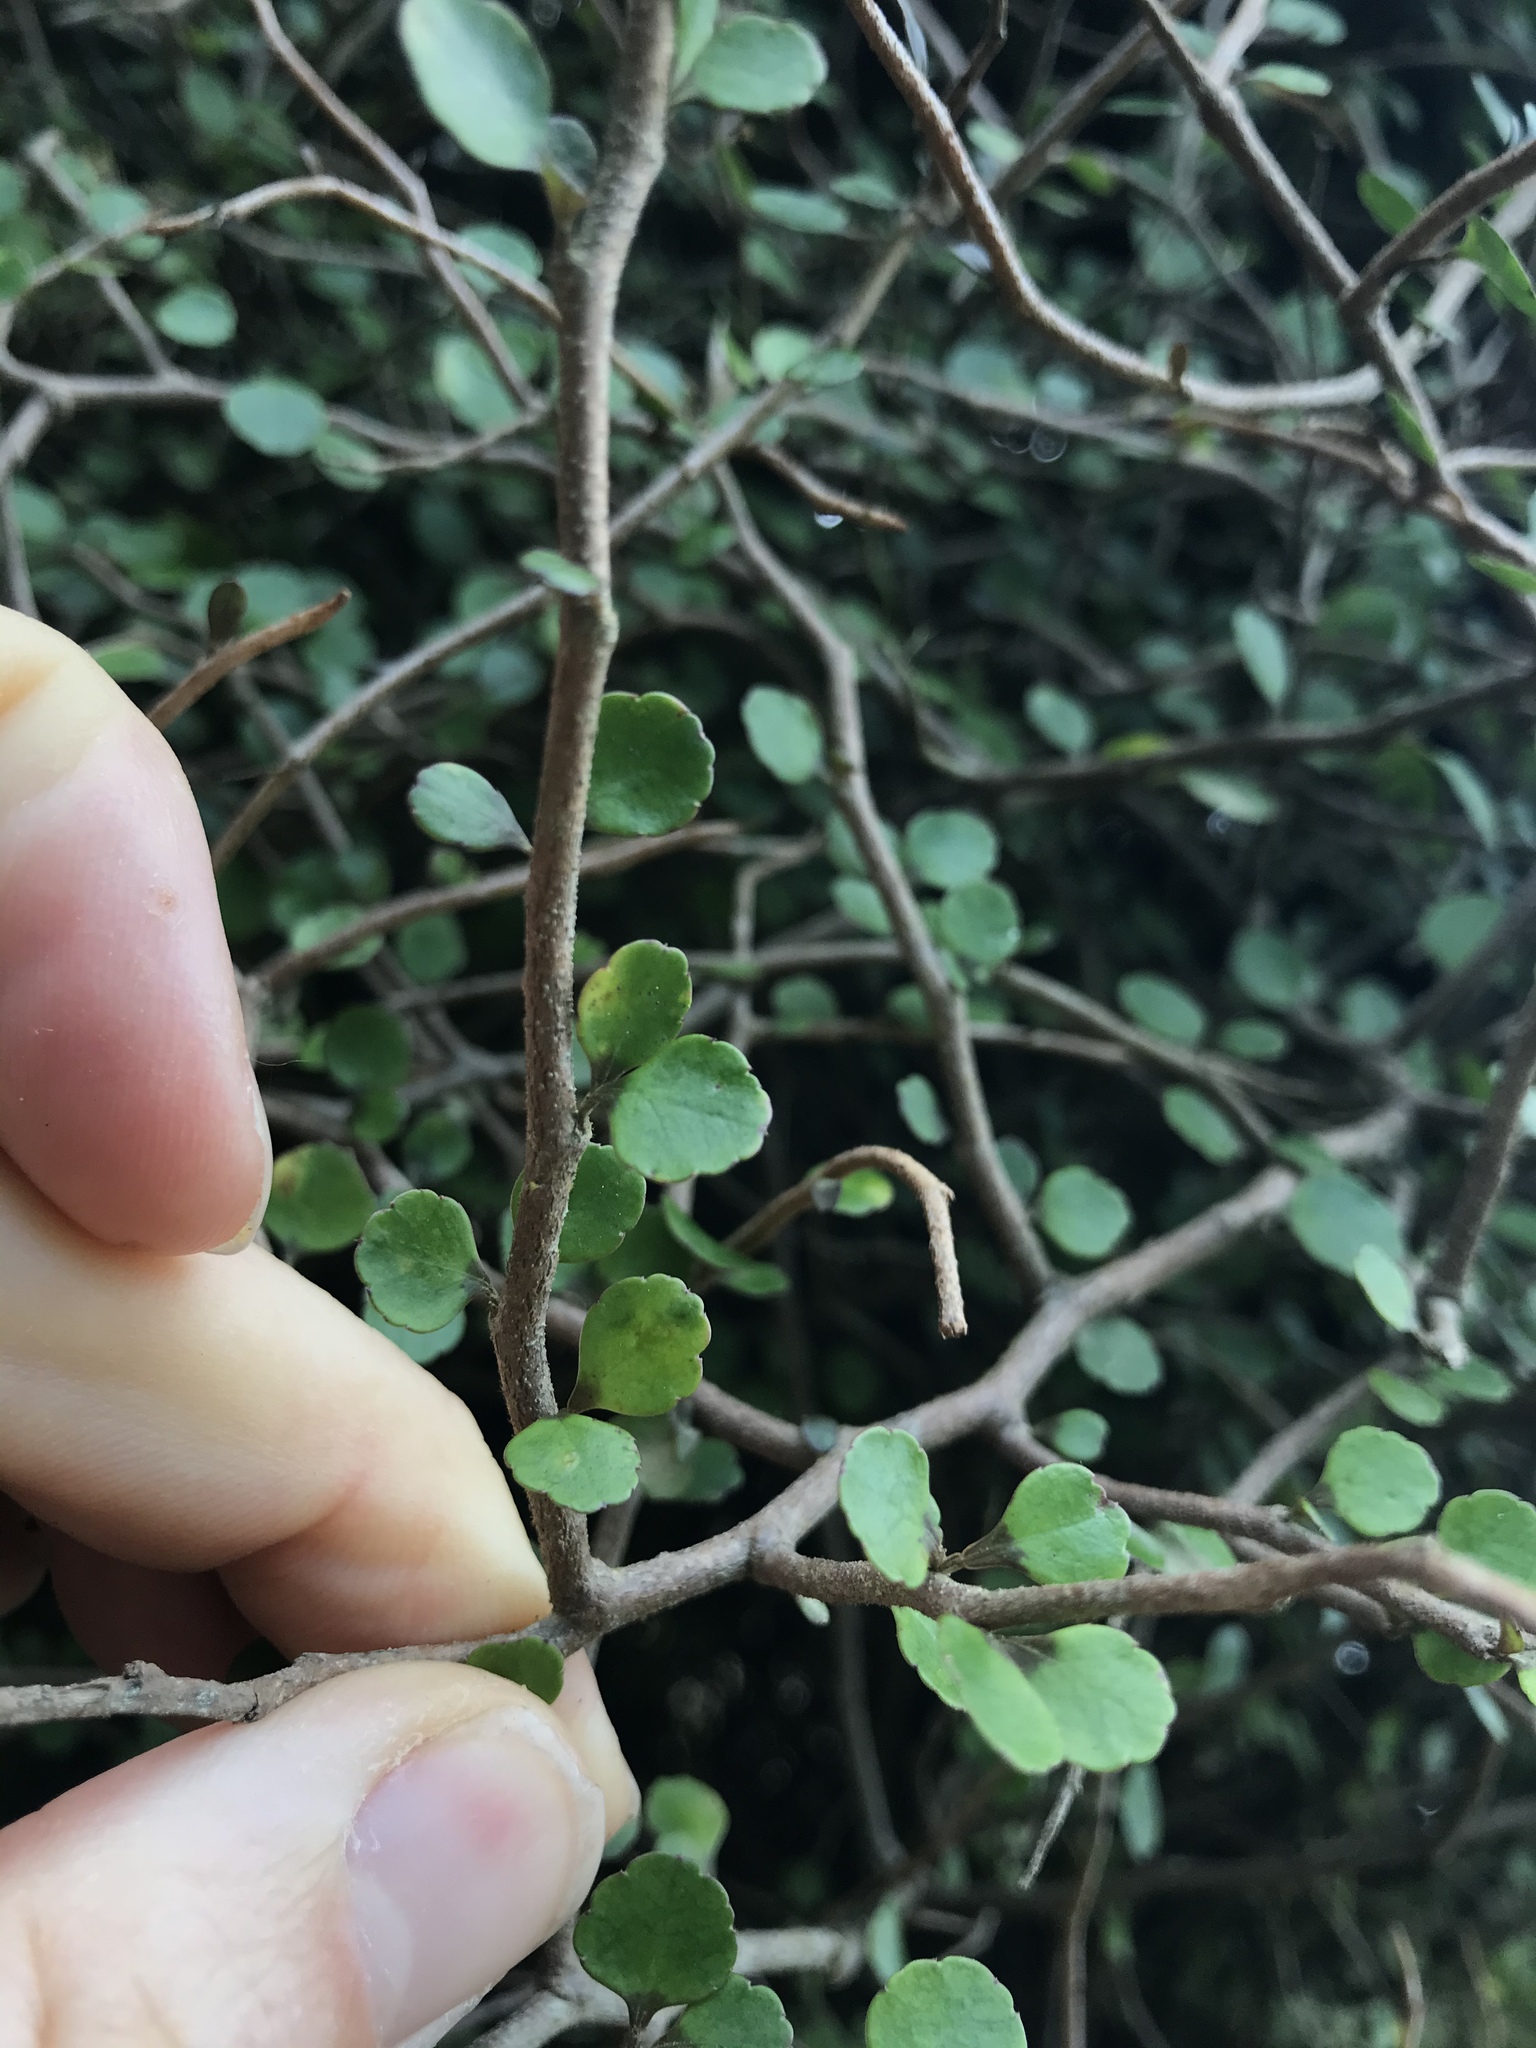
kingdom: Plantae
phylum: Tracheophyta
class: Magnoliopsida
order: Apiales
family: Araliaceae
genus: Raukaua
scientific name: Raukaua anomalus
